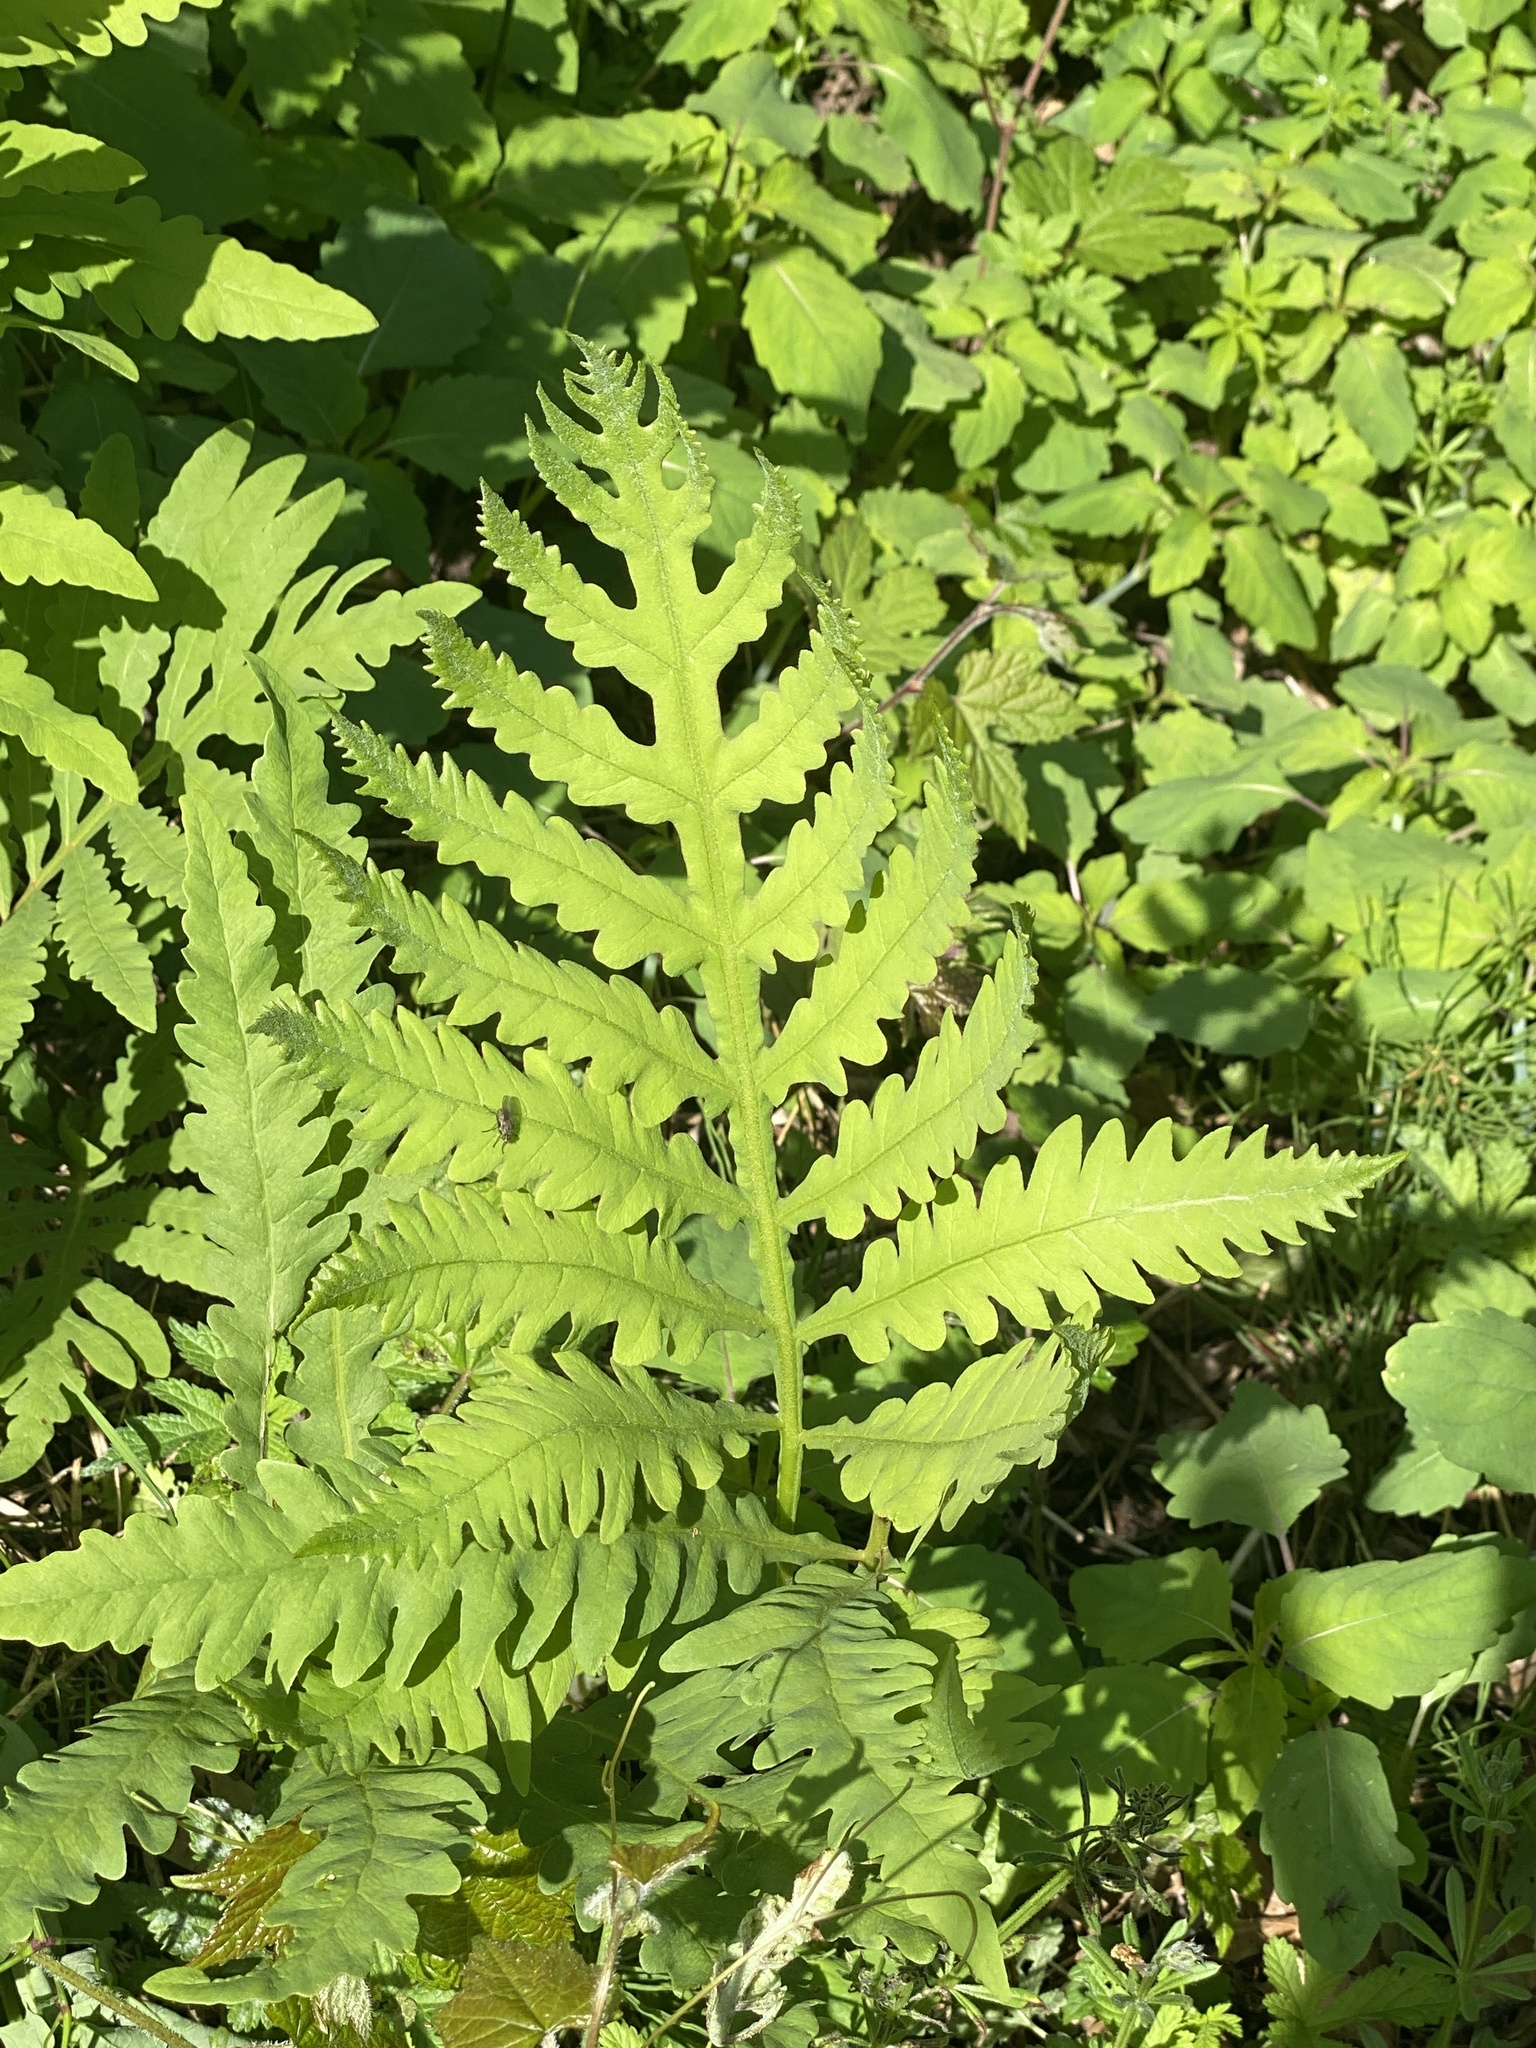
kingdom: Plantae
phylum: Tracheophyta
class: Polypodiopsida
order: Polypodiales
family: Onocleaceae
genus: Onoclea
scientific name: Onoclea sensibilis
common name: Sensitive fern
